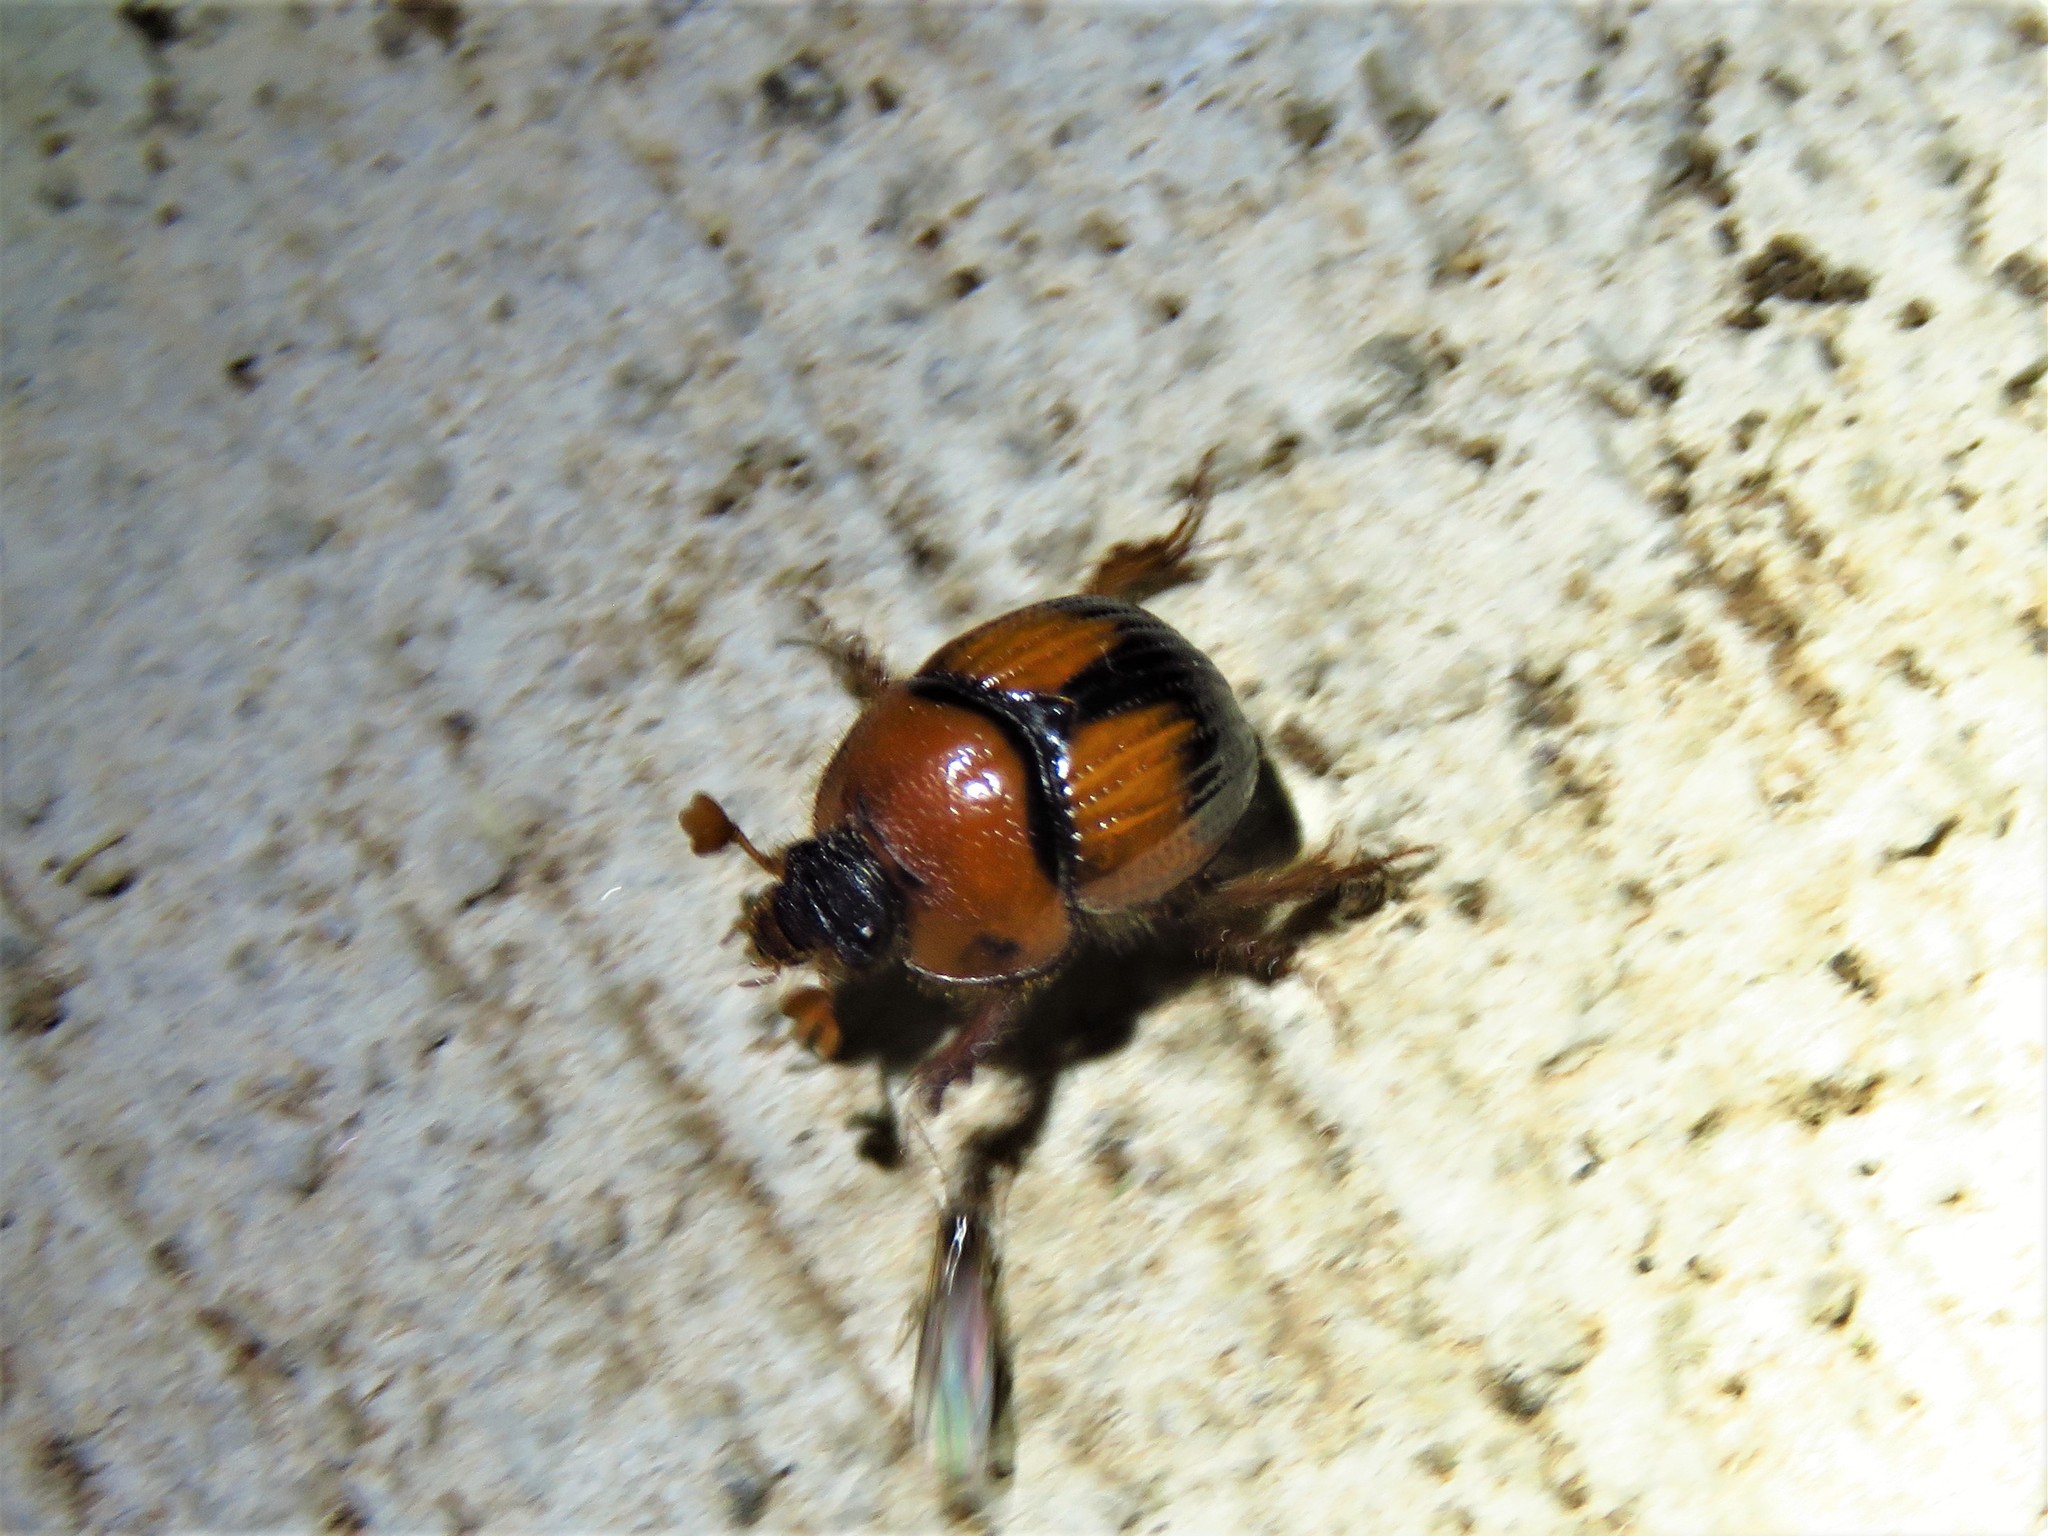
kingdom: Animalia
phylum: Arthropoda
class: Insecta
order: Coleoptera
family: Geotrupidae
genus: Bolbocerosoma
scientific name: Bolbocerosoma pusillum
